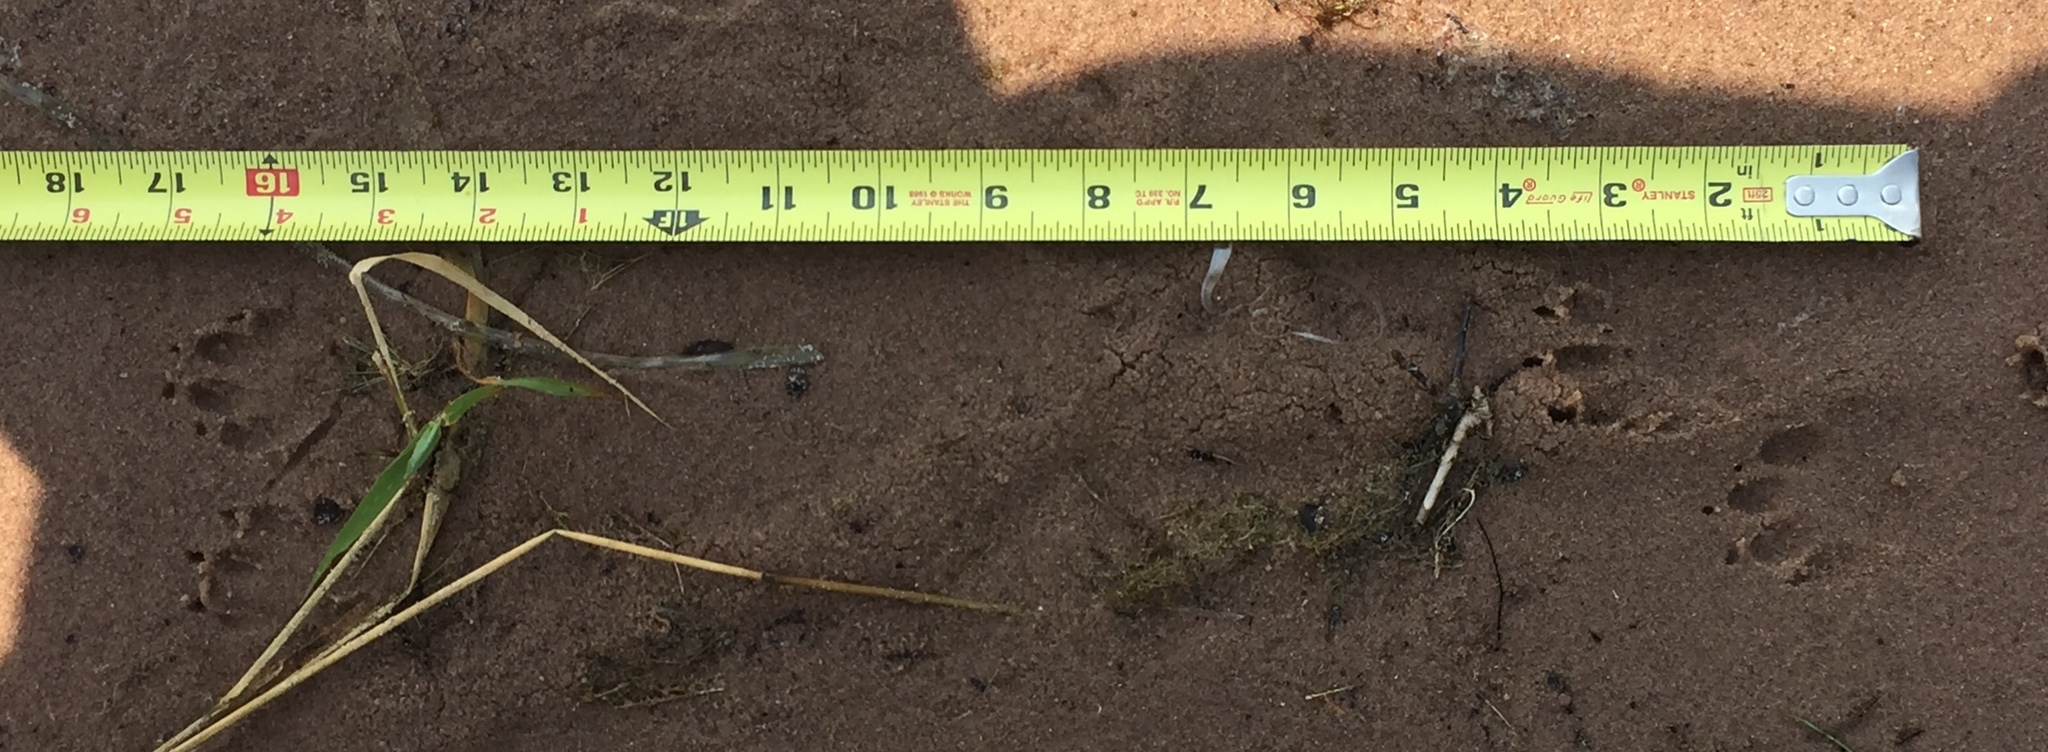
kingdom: Animalia
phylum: Chordata
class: Mammalia
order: Carnivora
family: Procyonidae
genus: Procyon
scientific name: Procyon lotor
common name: Raccoon
